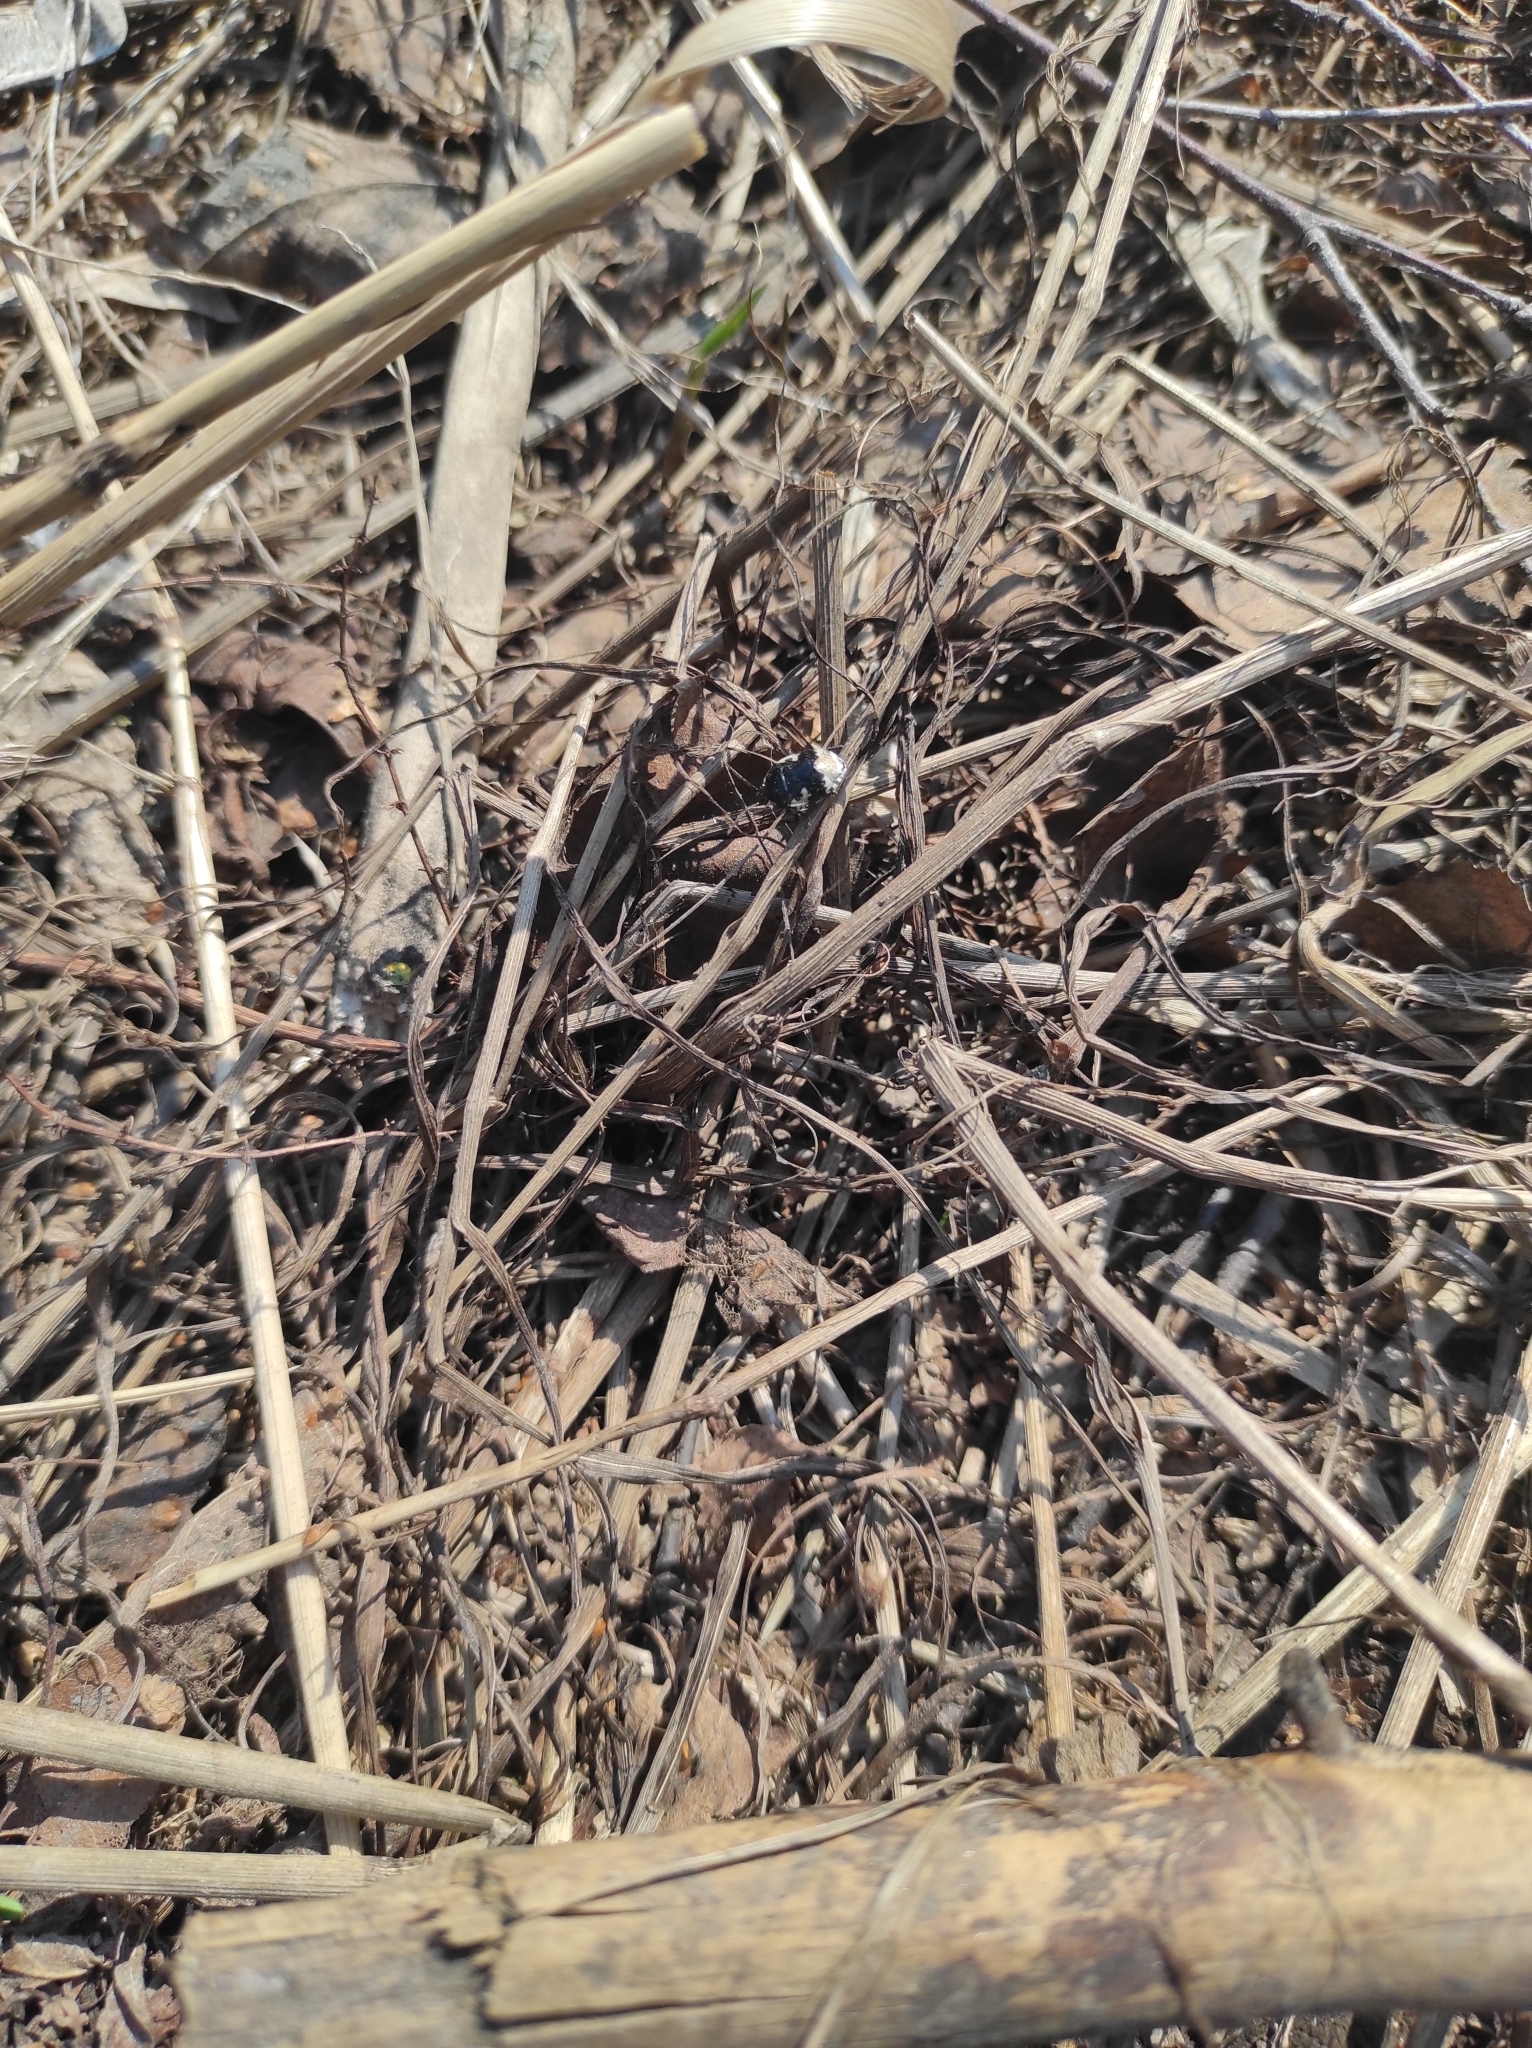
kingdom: Animalia
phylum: Arthropoda
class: Insecta
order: Hemiptera
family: Cydnidae
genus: Tritomegas
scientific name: Tritomegas bicolor
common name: Pied shieldbug
